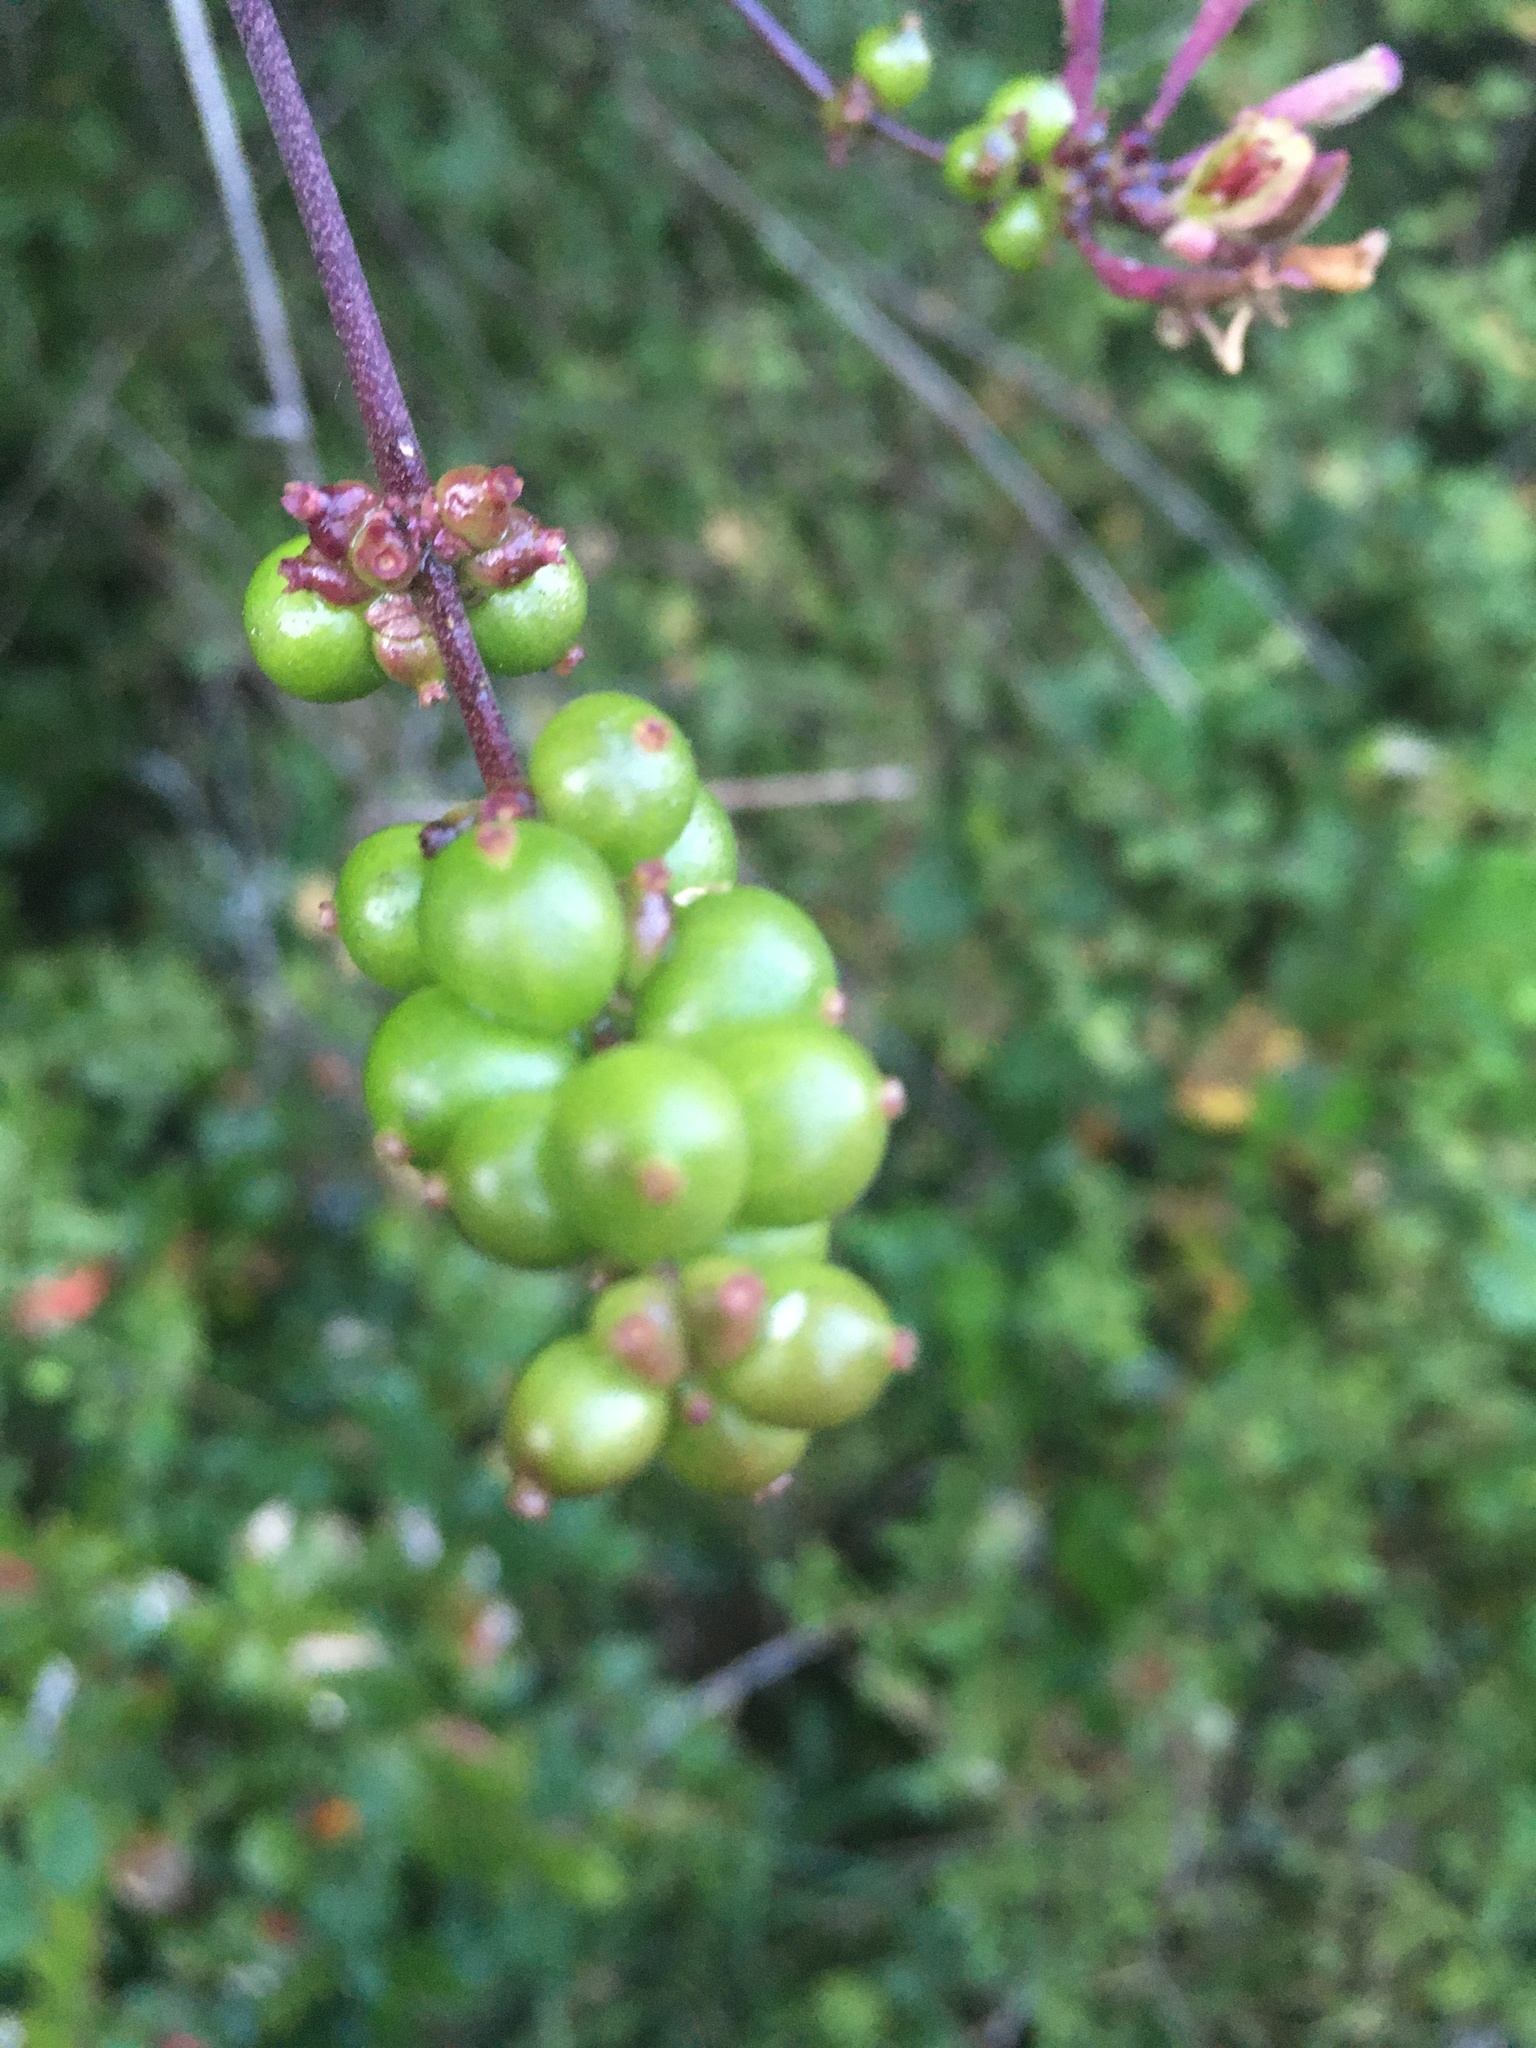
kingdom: Plantae
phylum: Tracheophyta
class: Magnoliopsida
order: Dipsacales
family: Caprifoliaceae
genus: Lonicera
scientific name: Lonicera hispidula
